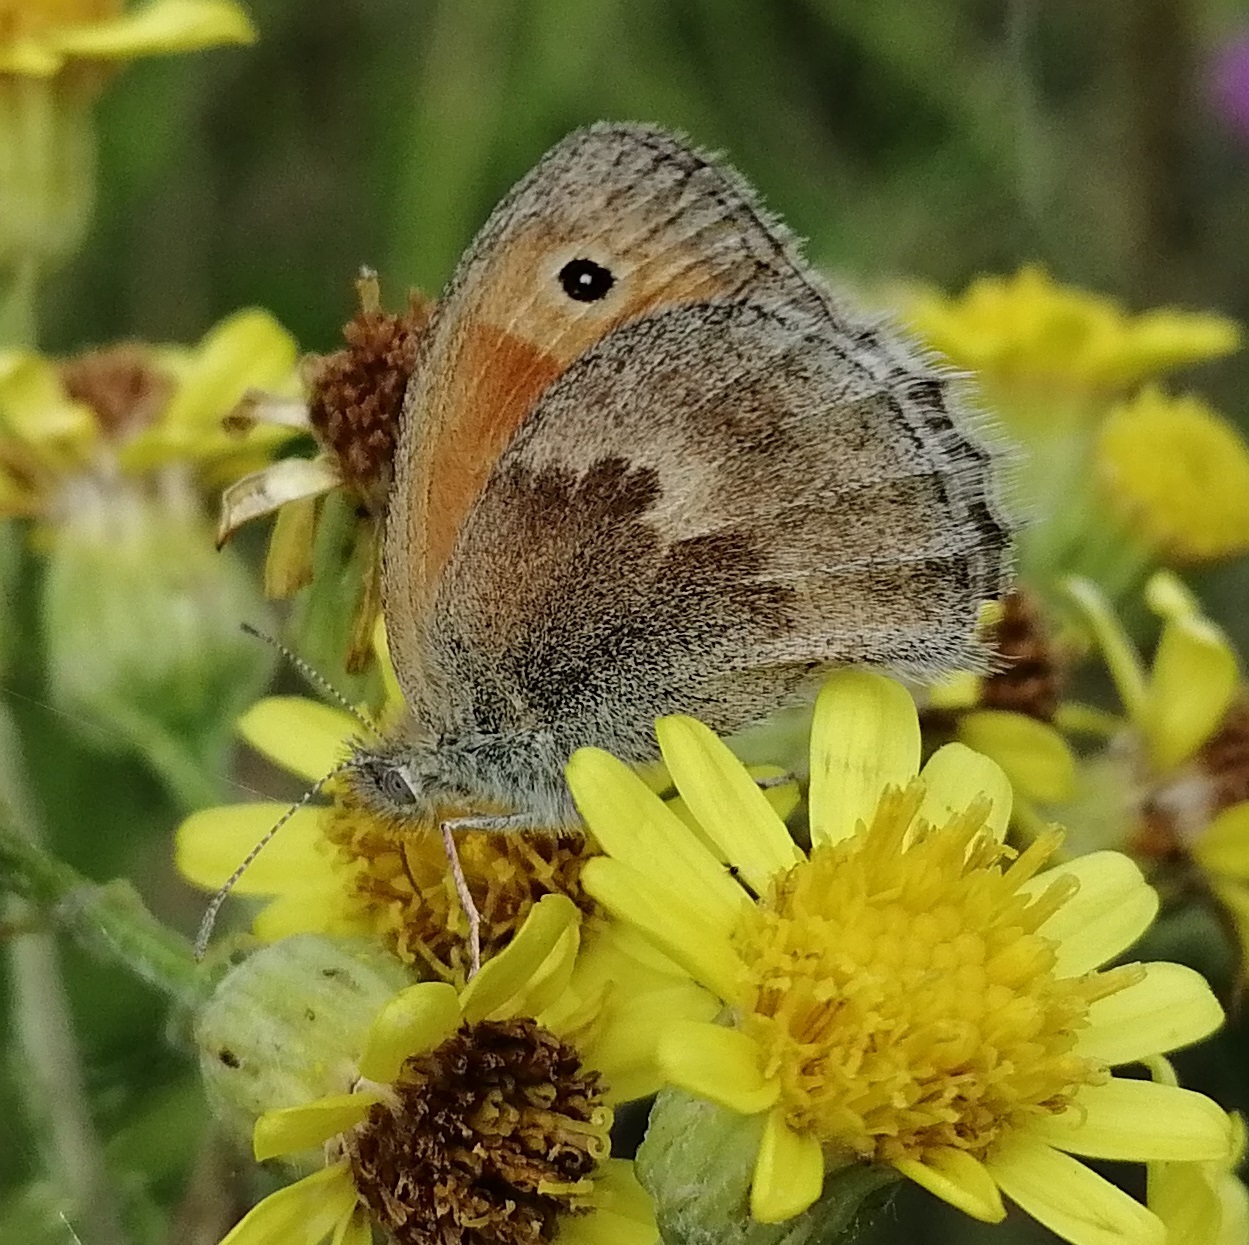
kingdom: Animalia
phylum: Arthropoda
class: Insecta
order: Lepidoptera
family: Nymphalidae
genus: Coenonympha
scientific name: Coenonympha pamphilus
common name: Small heath
